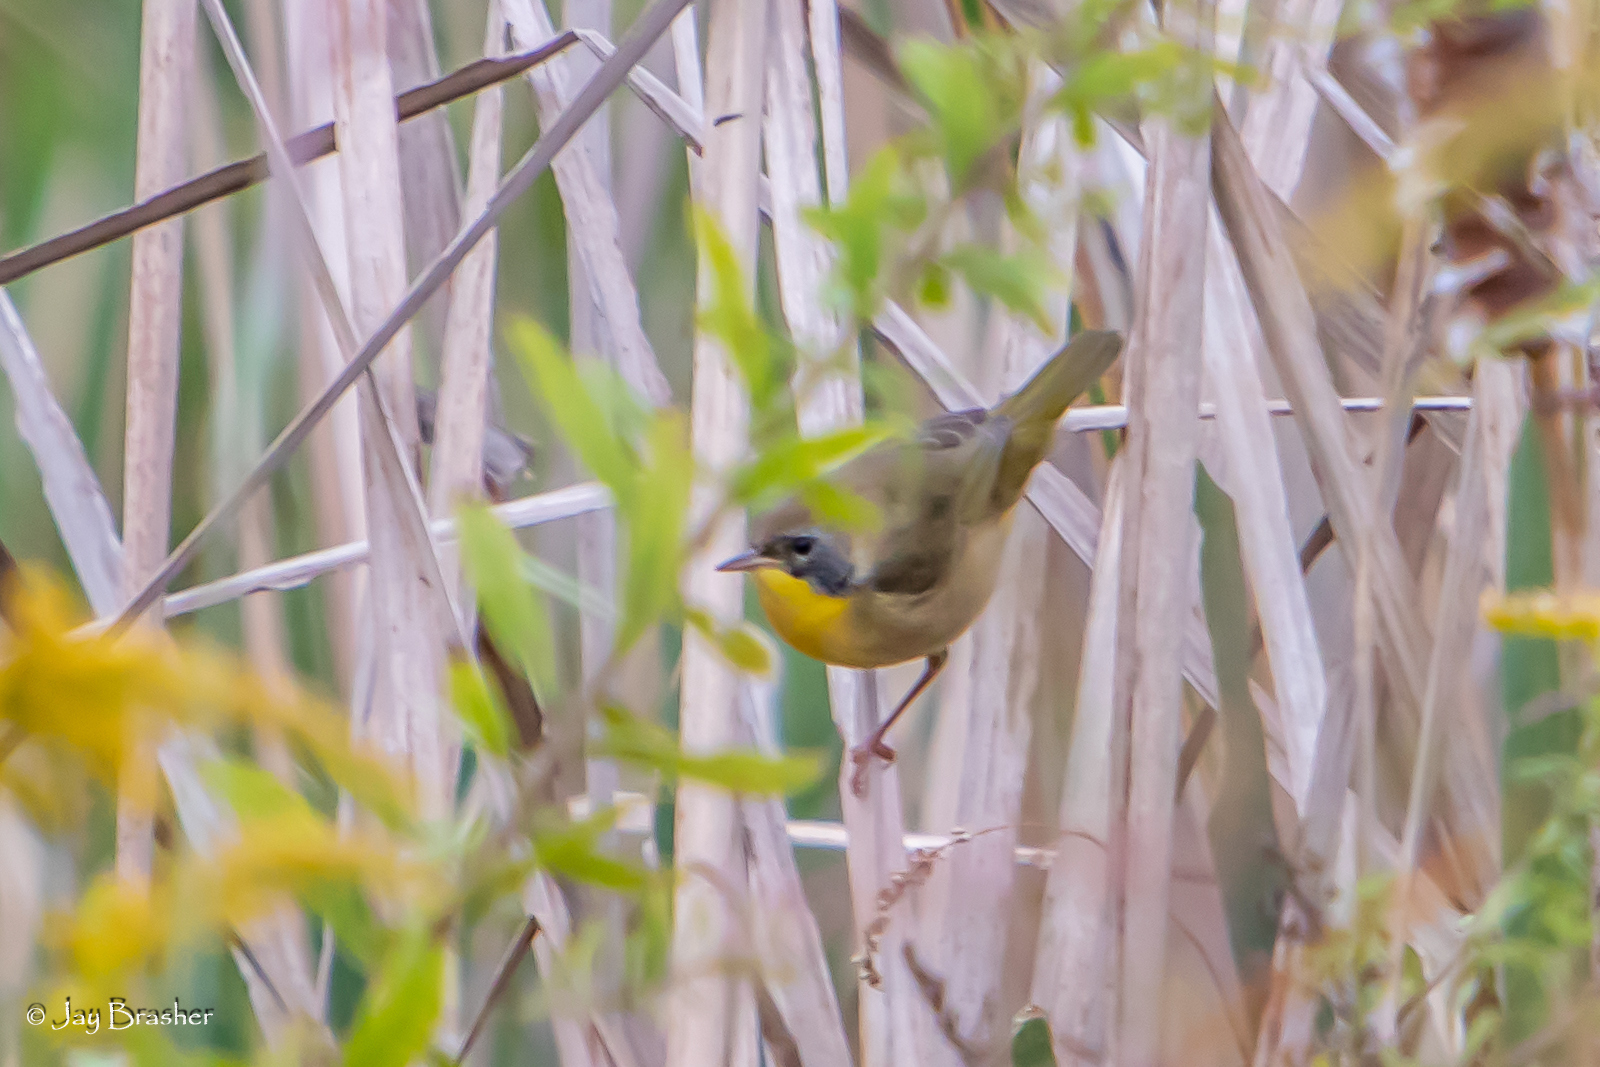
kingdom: Animalia
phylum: Chordata
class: Aves
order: Passeriformes
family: Parulidae
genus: Geothlypis
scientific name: Geothlypis trichas
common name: Common yellowthroat
